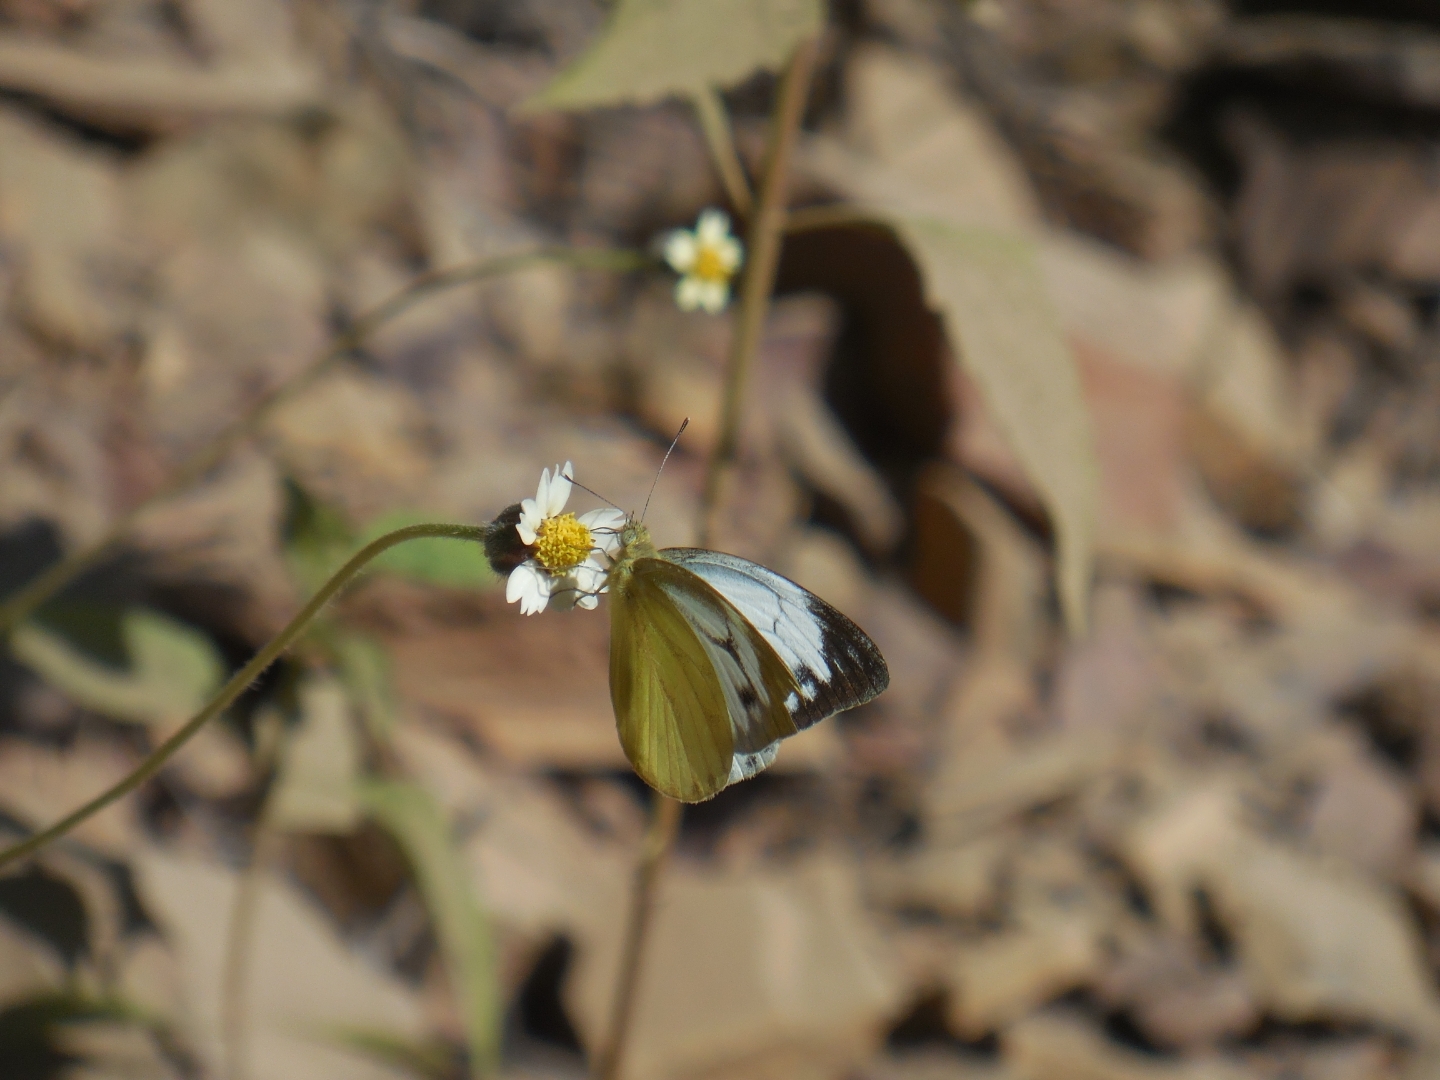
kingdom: Animalia
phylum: Arthropoda
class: Insecta
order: Lepidoptera
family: Pieridae
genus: Cepora
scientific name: Cepora nerissa
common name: Common gull
